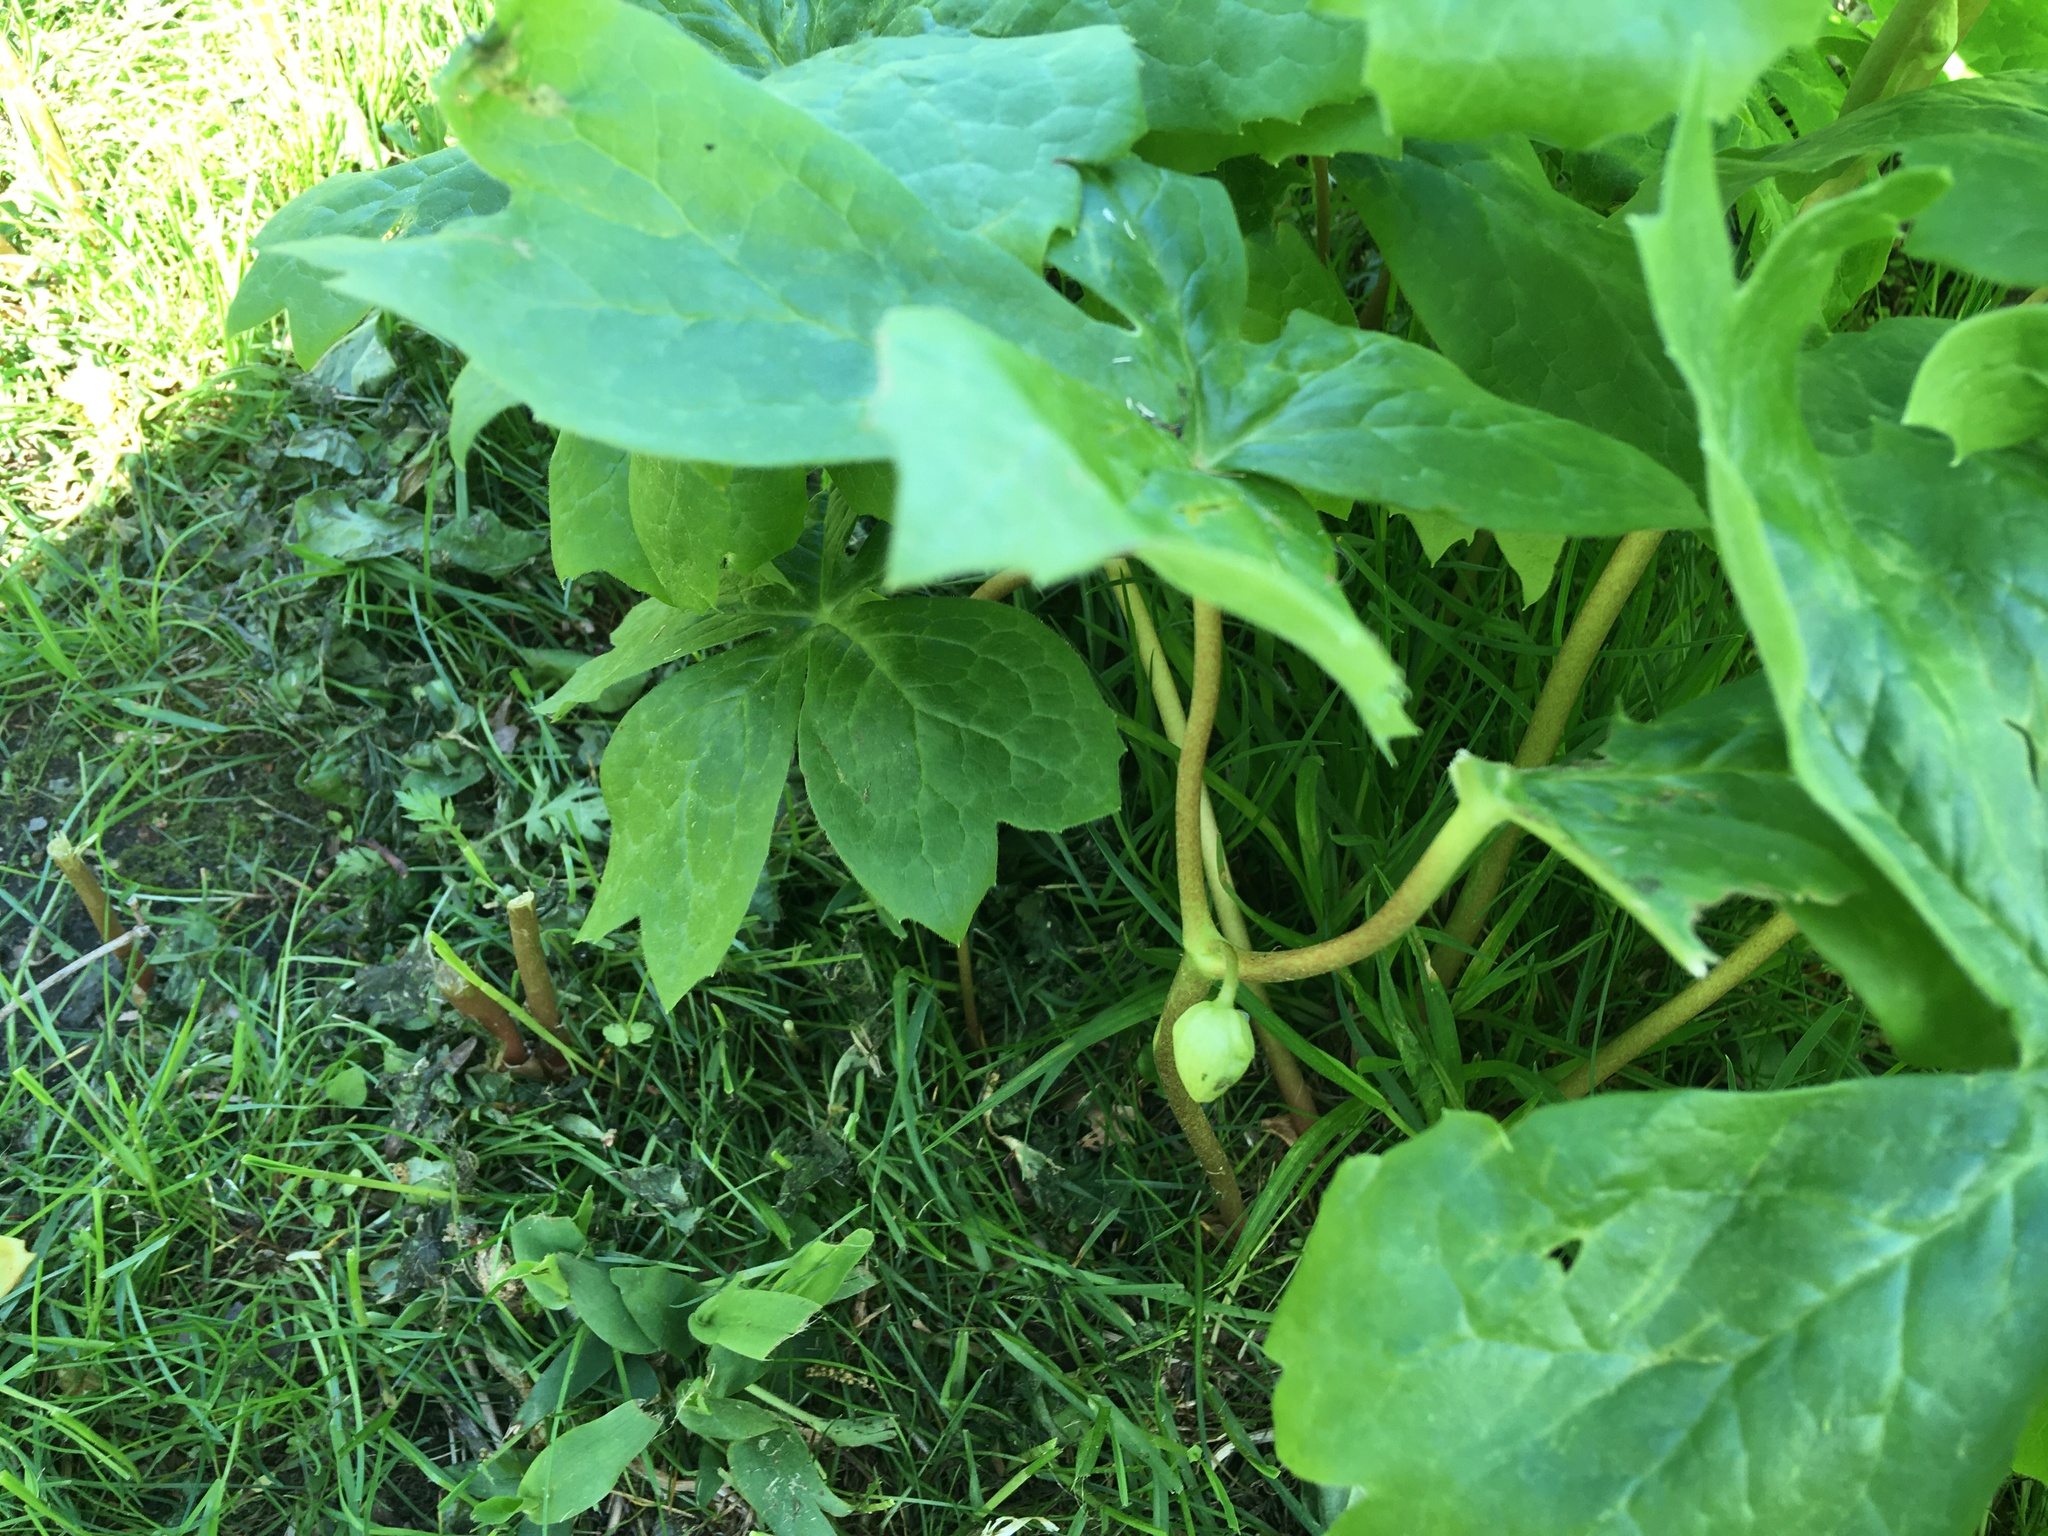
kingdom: Plantae
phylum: Tracheophyta
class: Magnoliopsida
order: Ranunculales
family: Berberidaceae
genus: Podophyllum
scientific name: Podophyllum peltatum
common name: Wild mandrake
